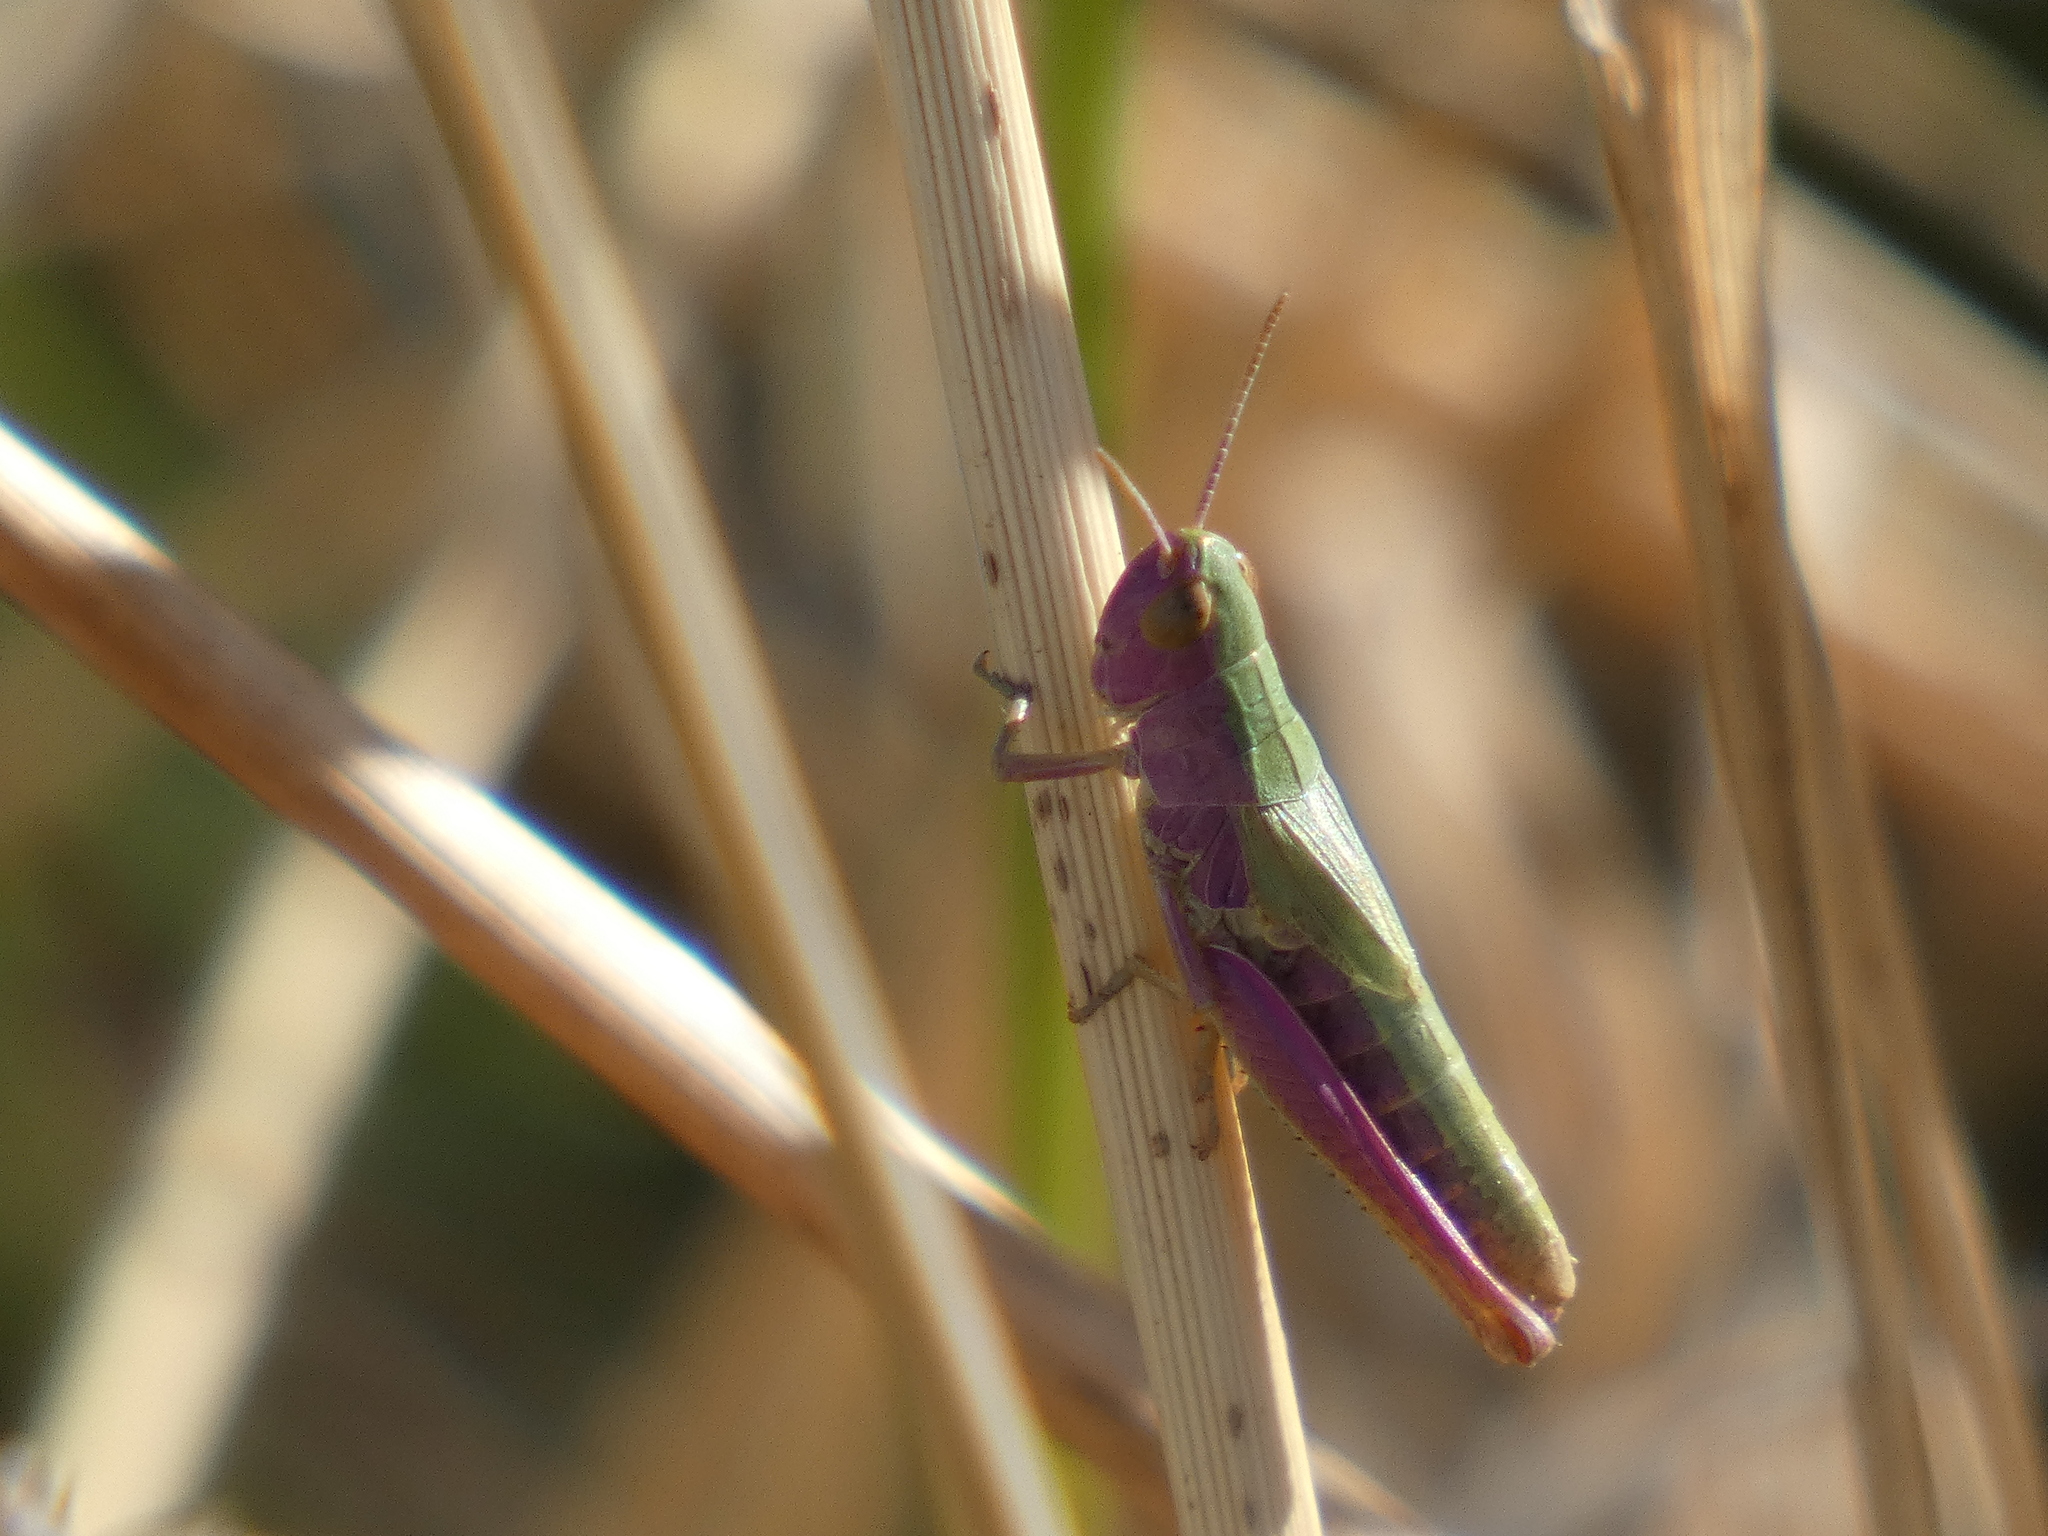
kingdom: Animalia
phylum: Arthropoda
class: Insecta
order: Orthoptera
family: Acrididae
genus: Pseudochorthippus
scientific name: Pseudochorthippus parallelus
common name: Meadow grasshopper
